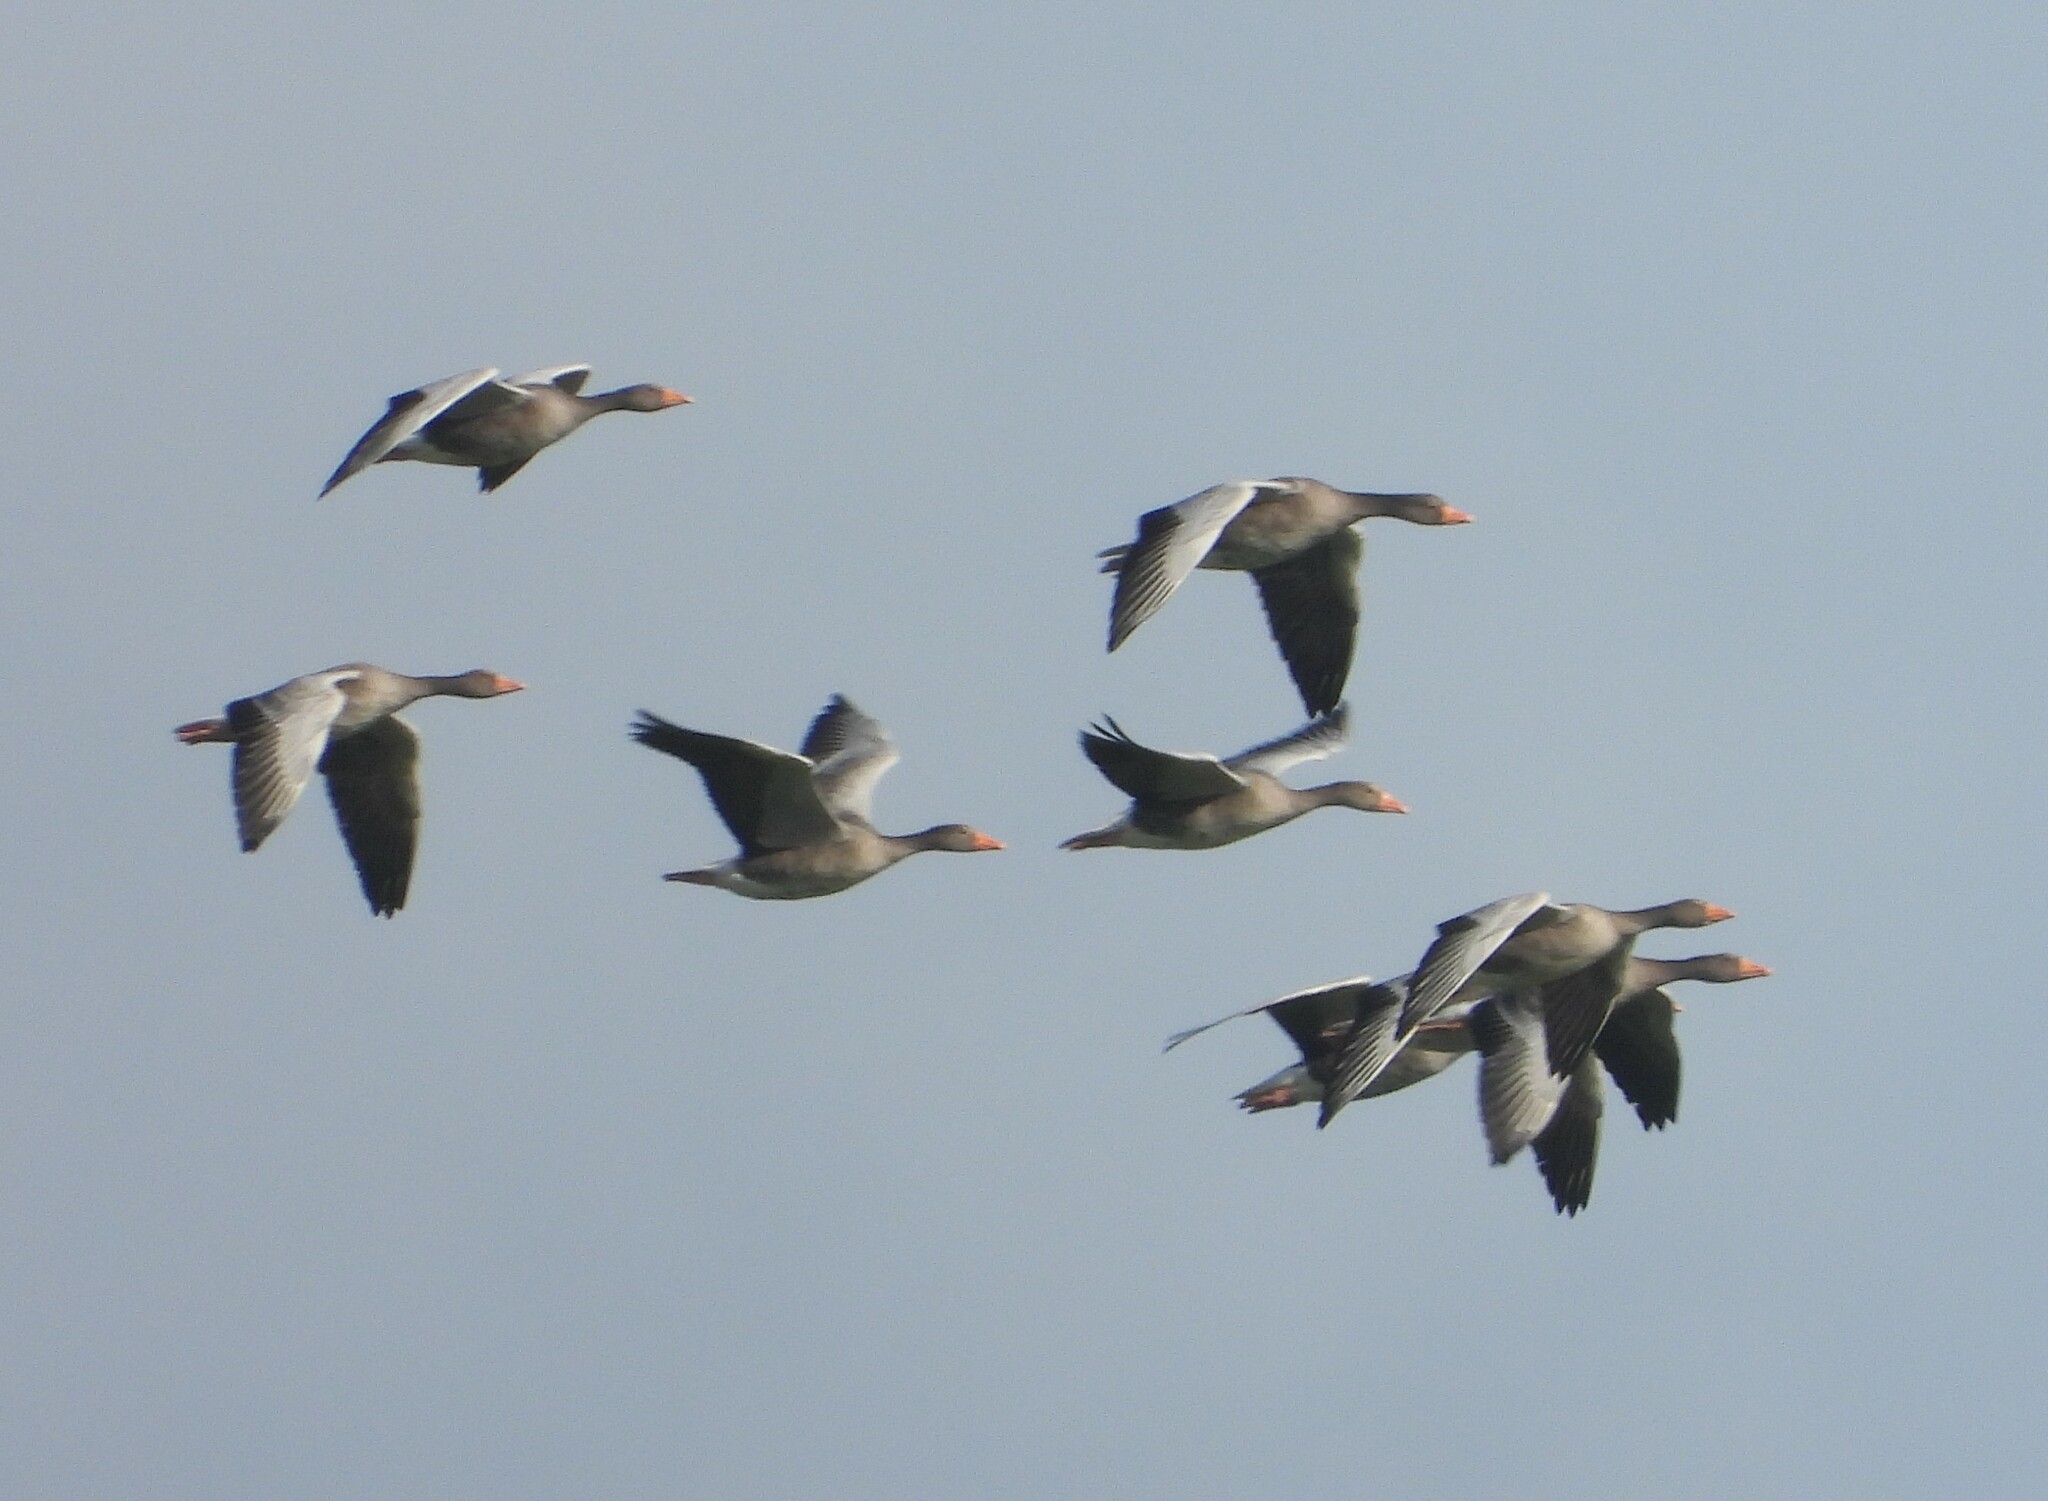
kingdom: Animalia
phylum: Chordata
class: Aves
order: Anseriformes
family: Anatidae
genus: Anser
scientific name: Anser anser
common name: Greylag goose
